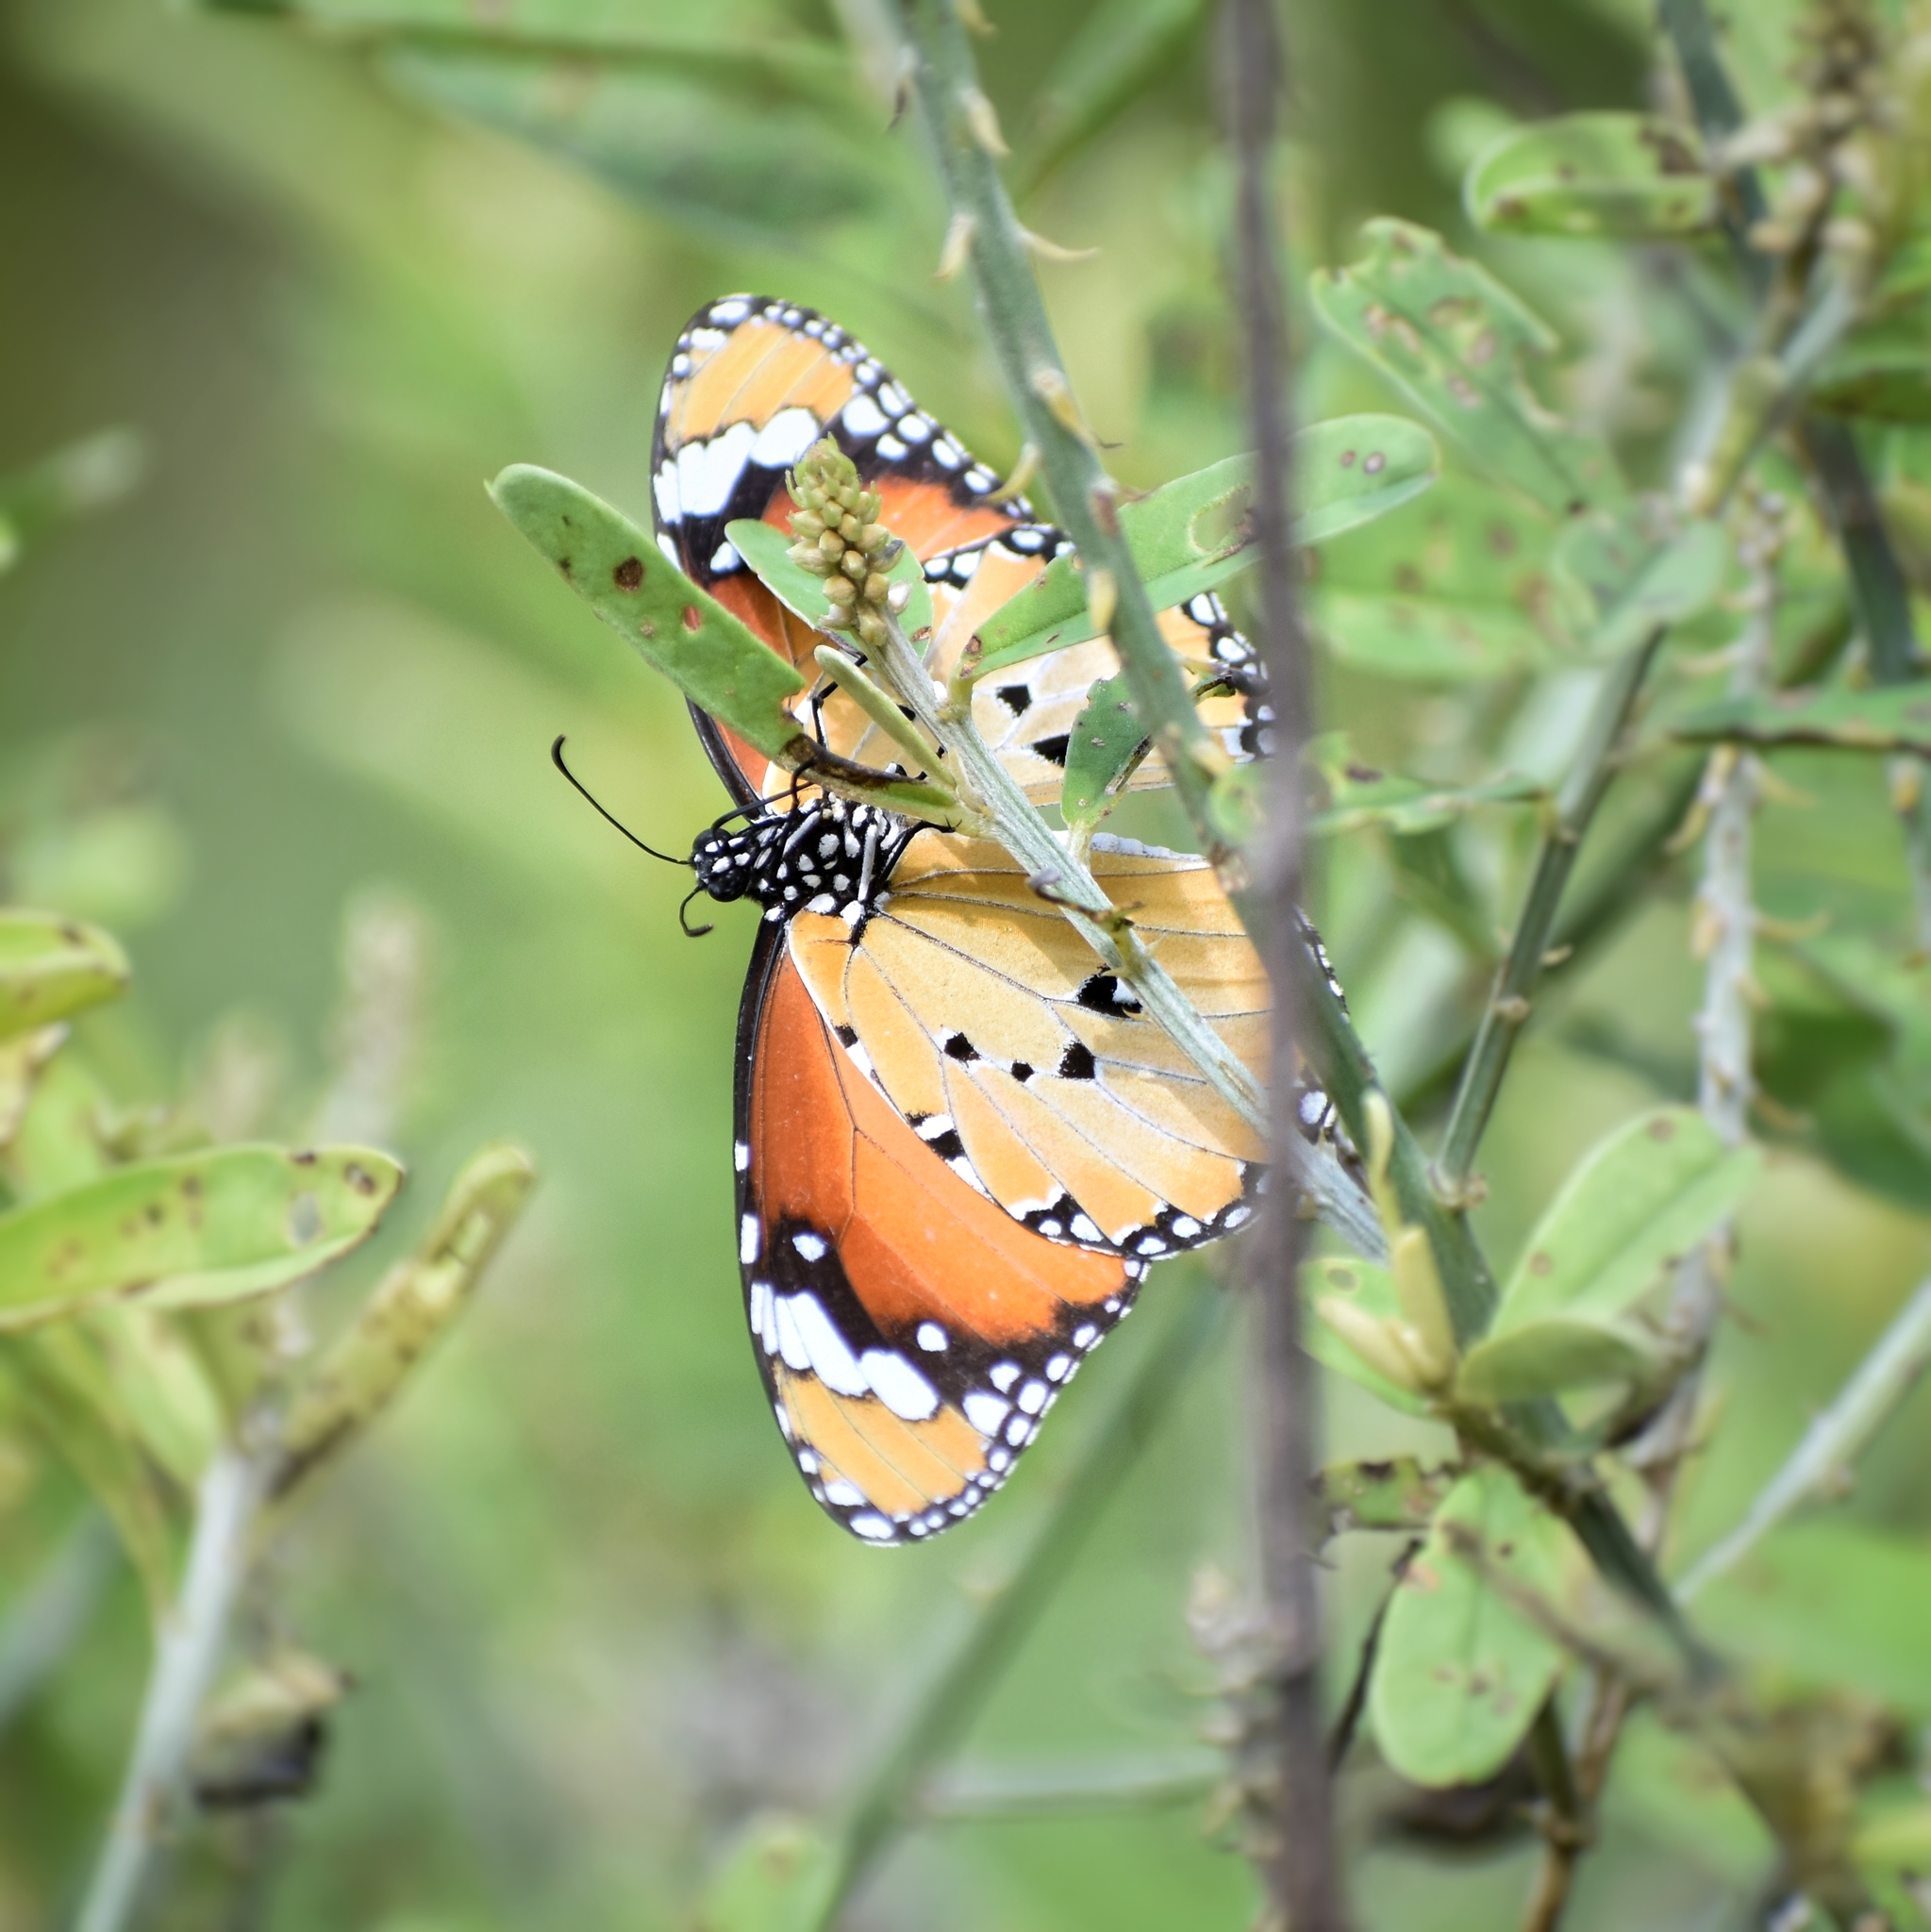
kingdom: Animalia
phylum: Arthropoda
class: Insecta
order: Lepidoptera
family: Nymphalidae
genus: Danaus
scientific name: Danaus chrysippus
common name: Plain tiger
